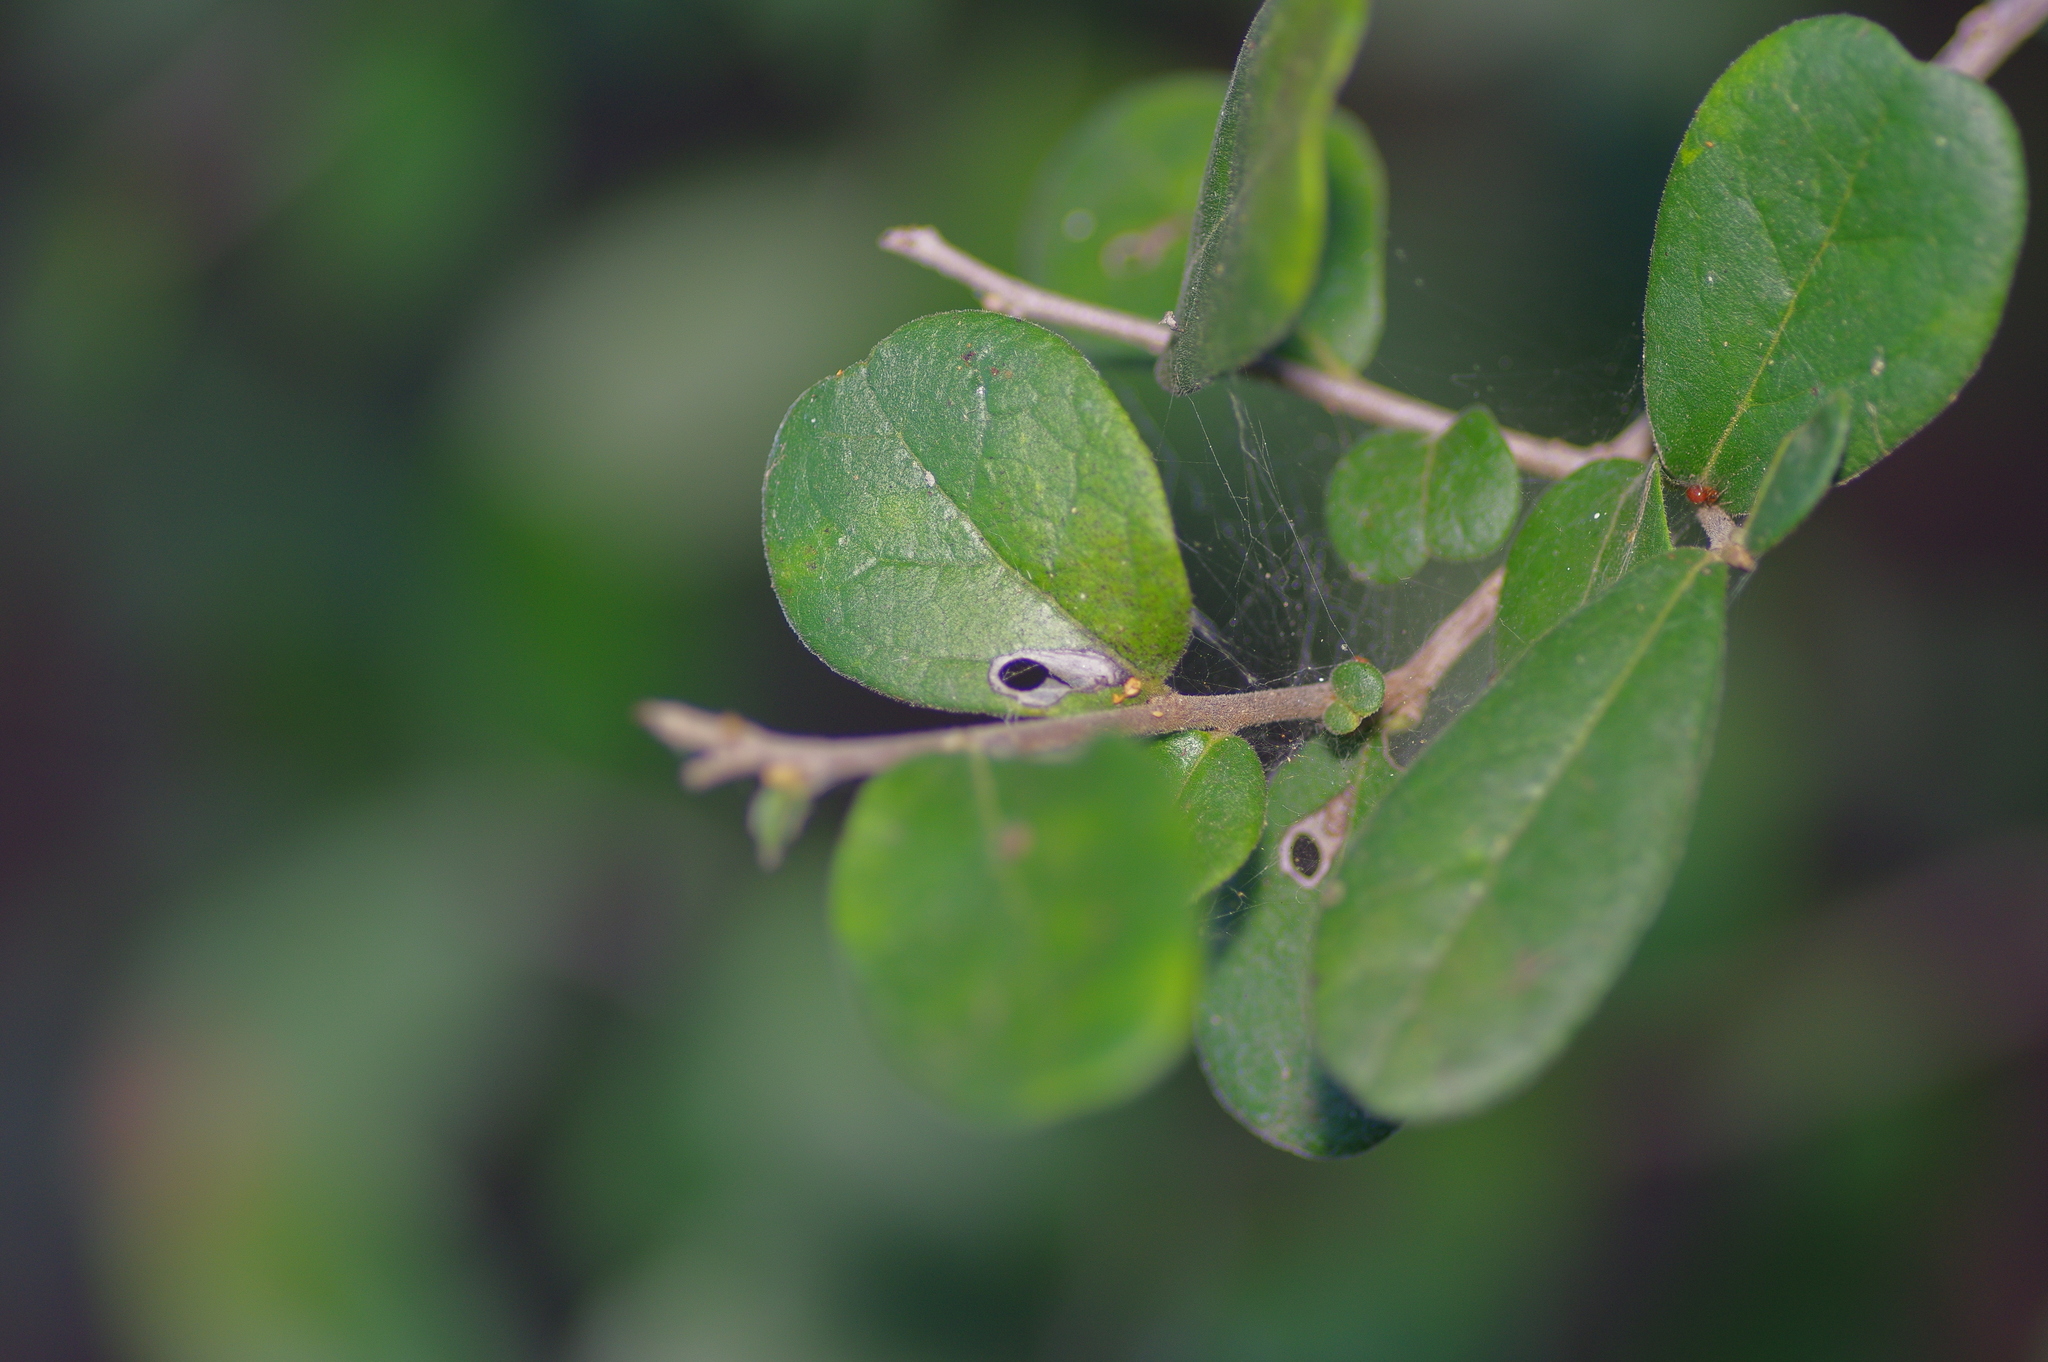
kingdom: Plantae
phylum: Tracheophyta
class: Magnoliopsida
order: Ericales
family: Ebenaceae
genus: Diospyros
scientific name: Diospyros texana
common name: Texas persimmon
